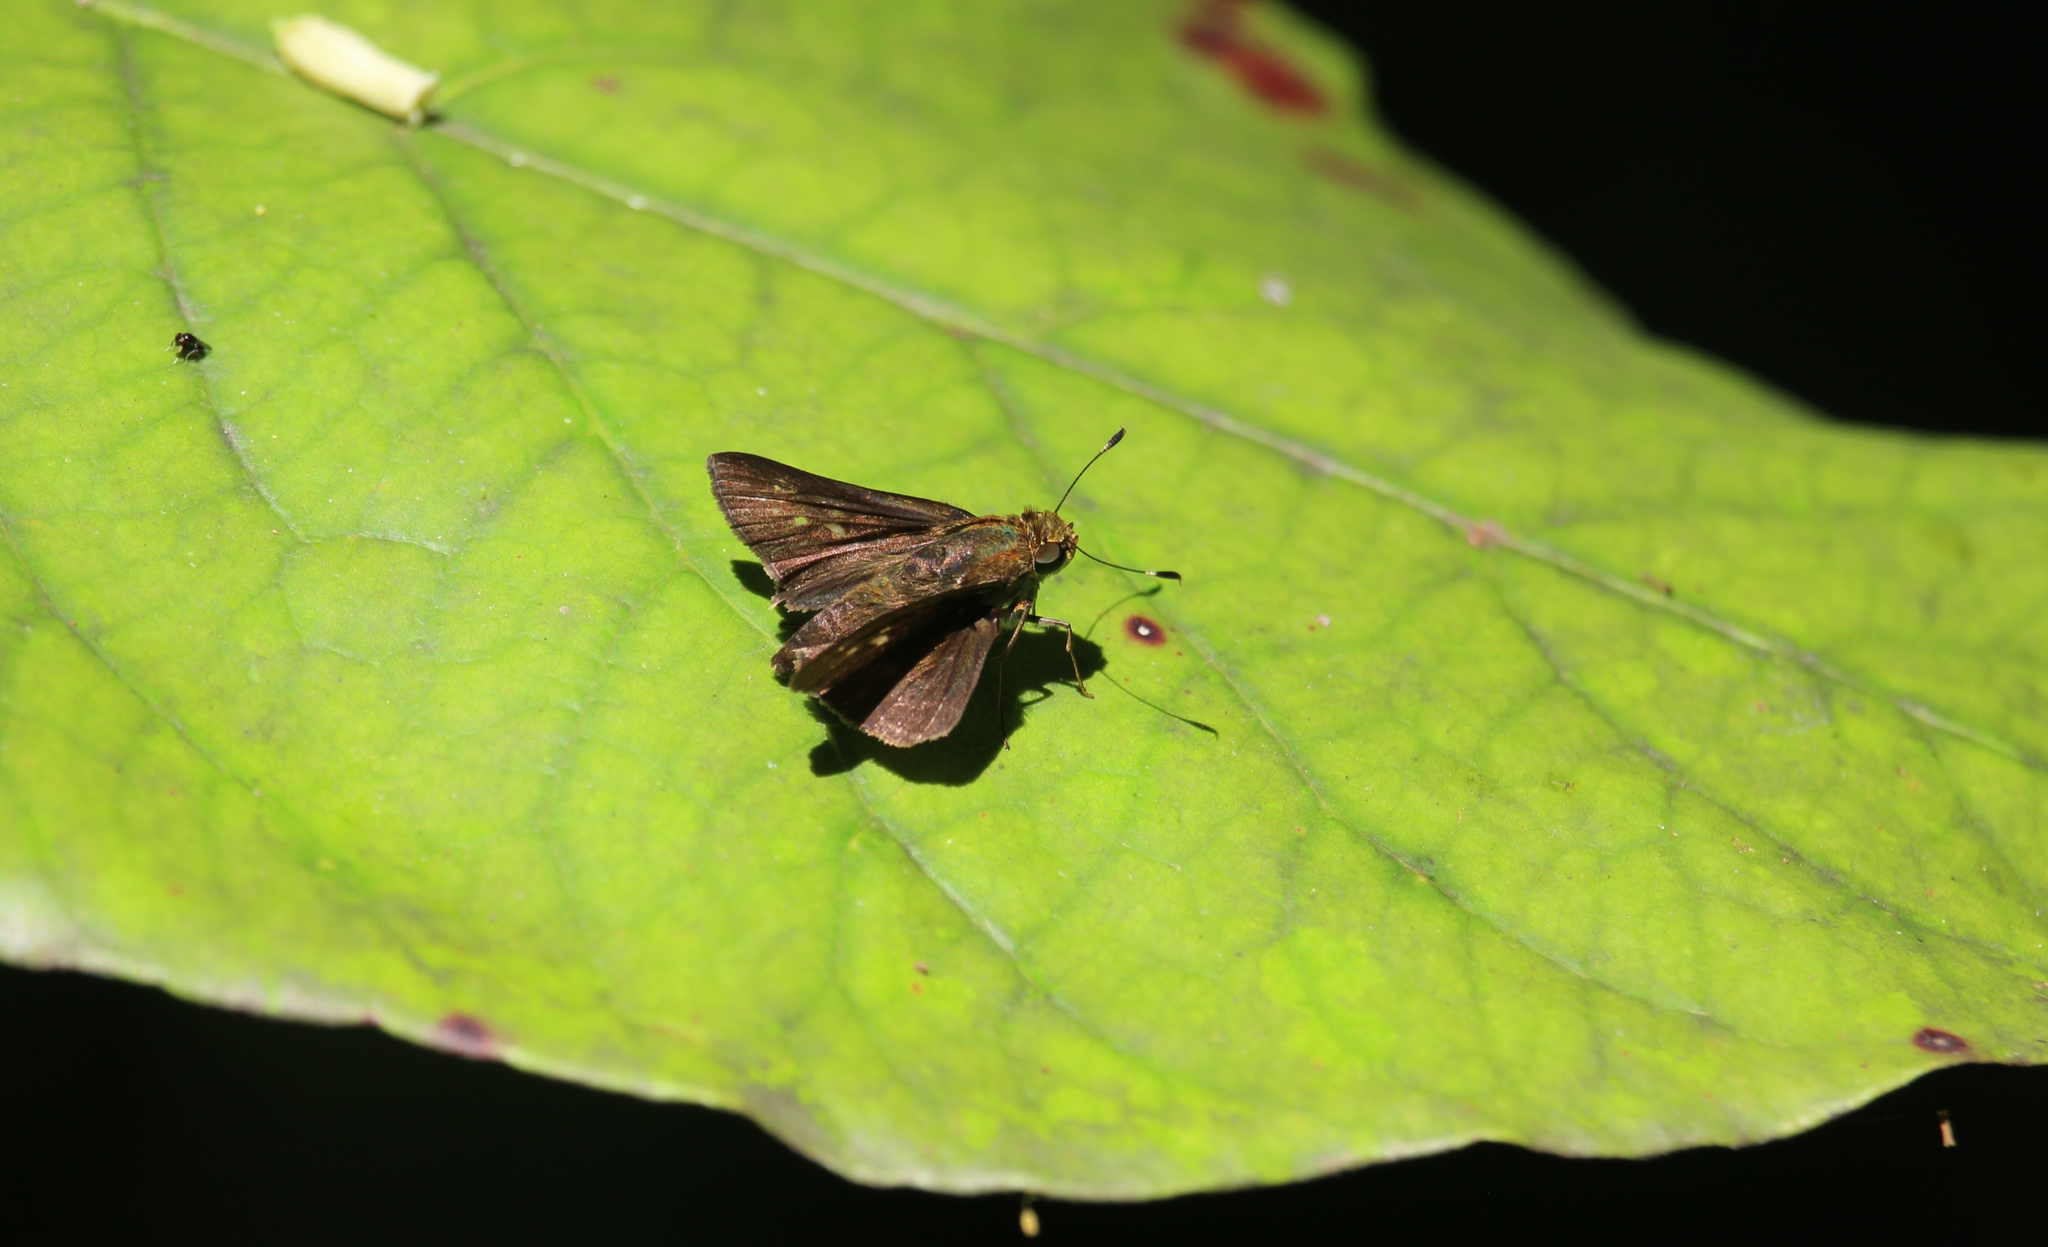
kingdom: Animalia
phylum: Arthropoda
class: Insecta
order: Lepidoptera
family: Hesperiidae
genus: Pompeius
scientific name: Pompeius pompeius
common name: Pompeius skipper
